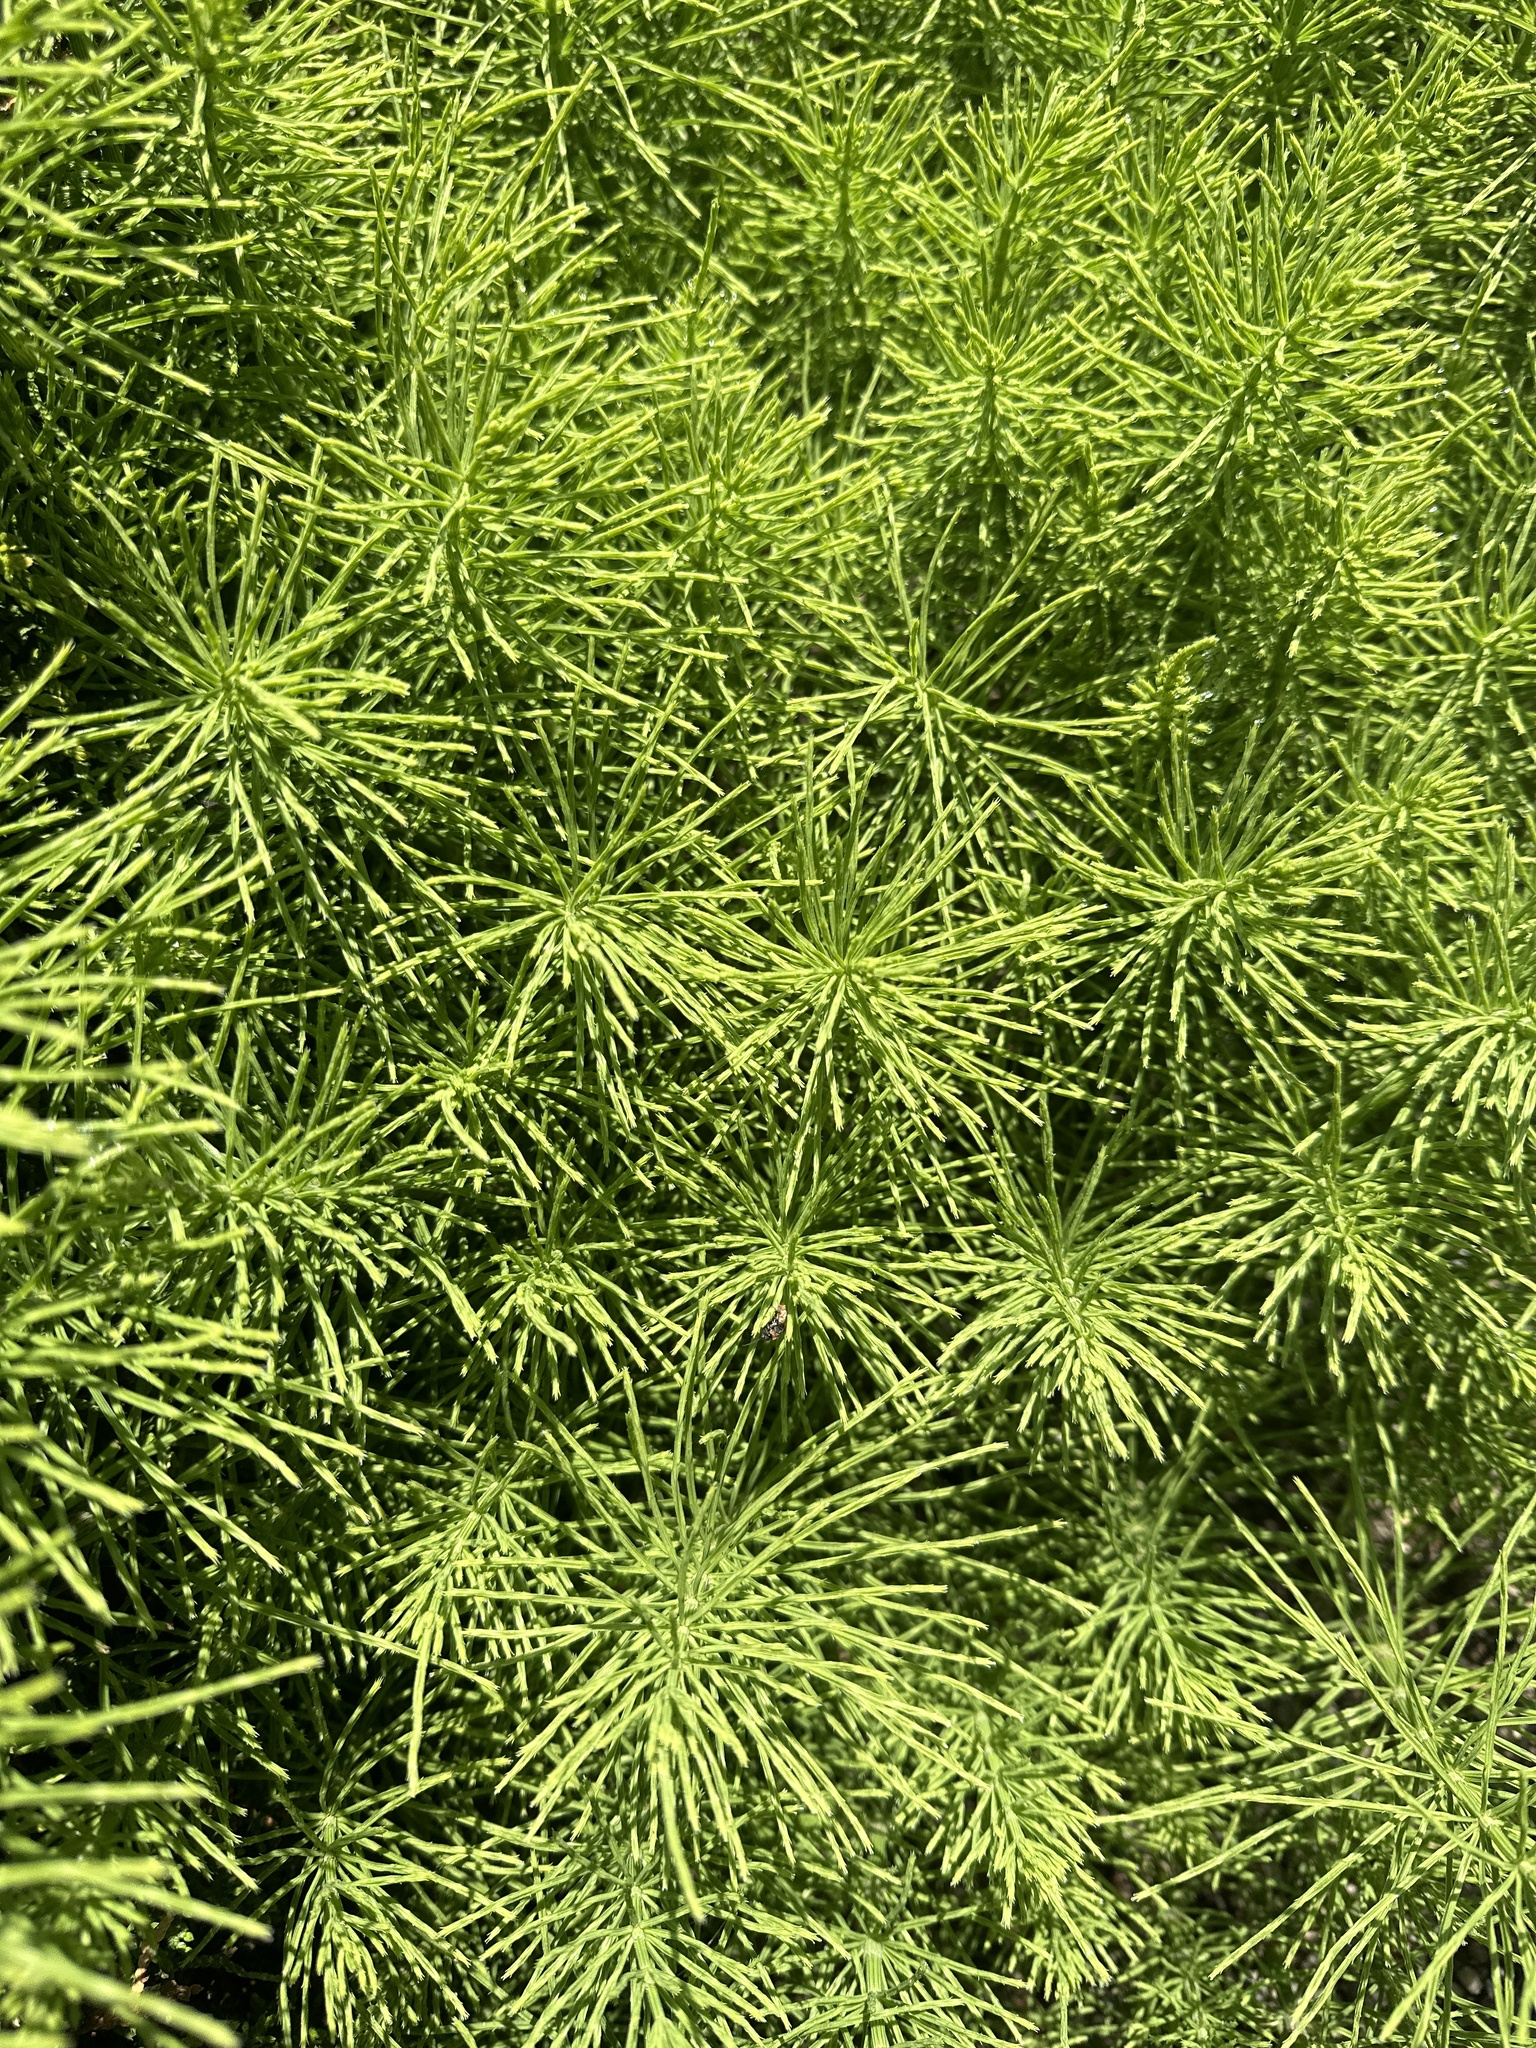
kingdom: Plantae
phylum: Tracheophyta
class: Polypodiopsida
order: Equisetales
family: Equisetaceae
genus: Equisetum
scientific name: Equisetum arvense
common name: Field horsetail
